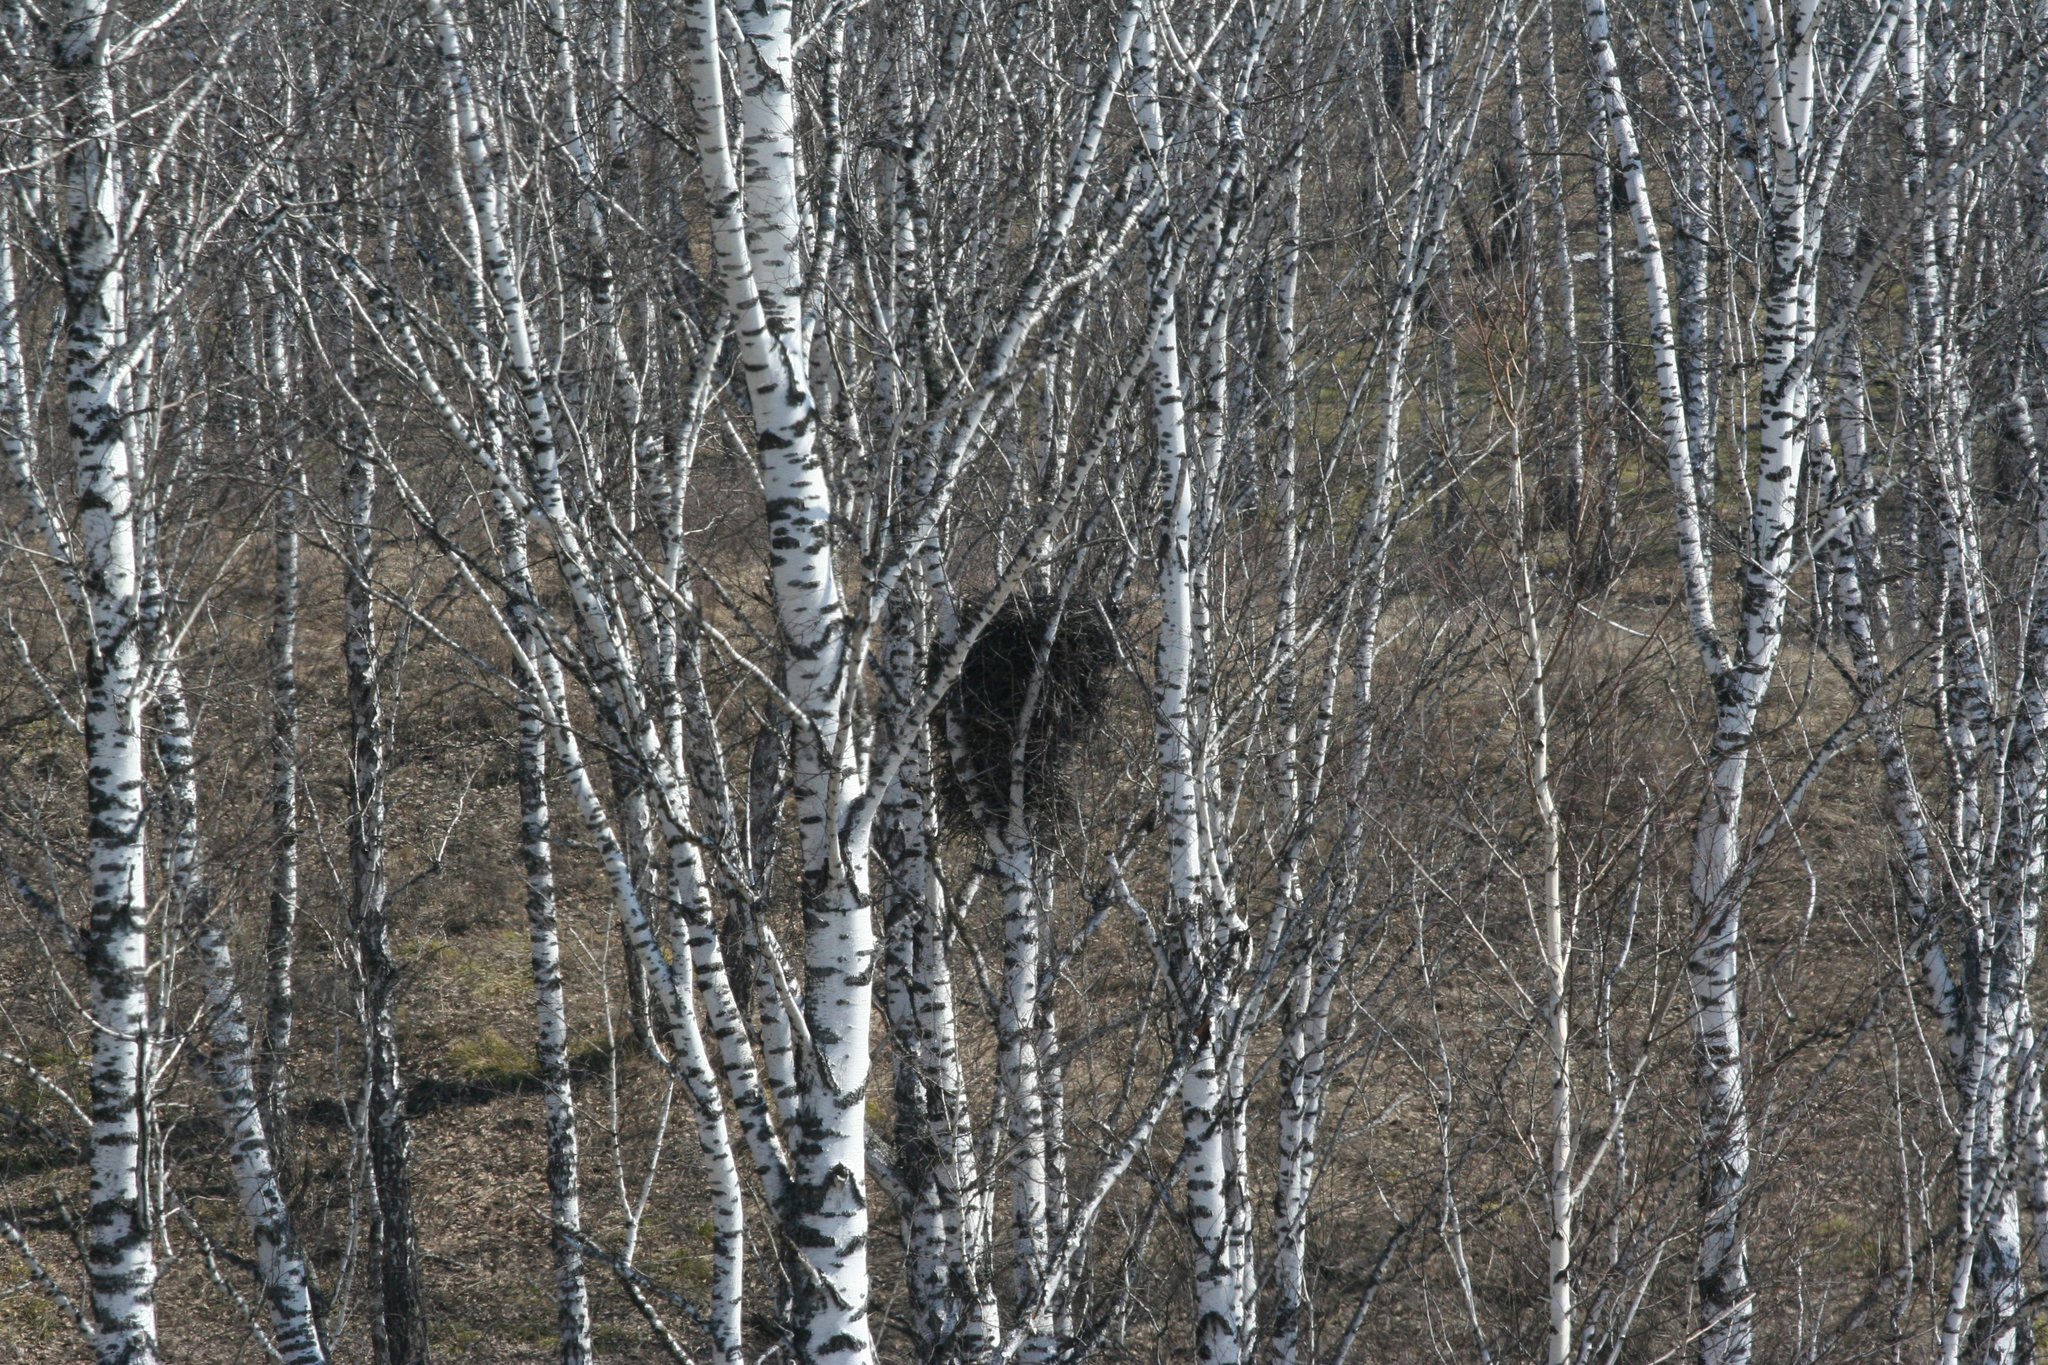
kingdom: Animalia
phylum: Chordata
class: Aves
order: Passeriformes
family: Corvidae
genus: Pica
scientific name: Pica pica
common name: Eurasian magpie
